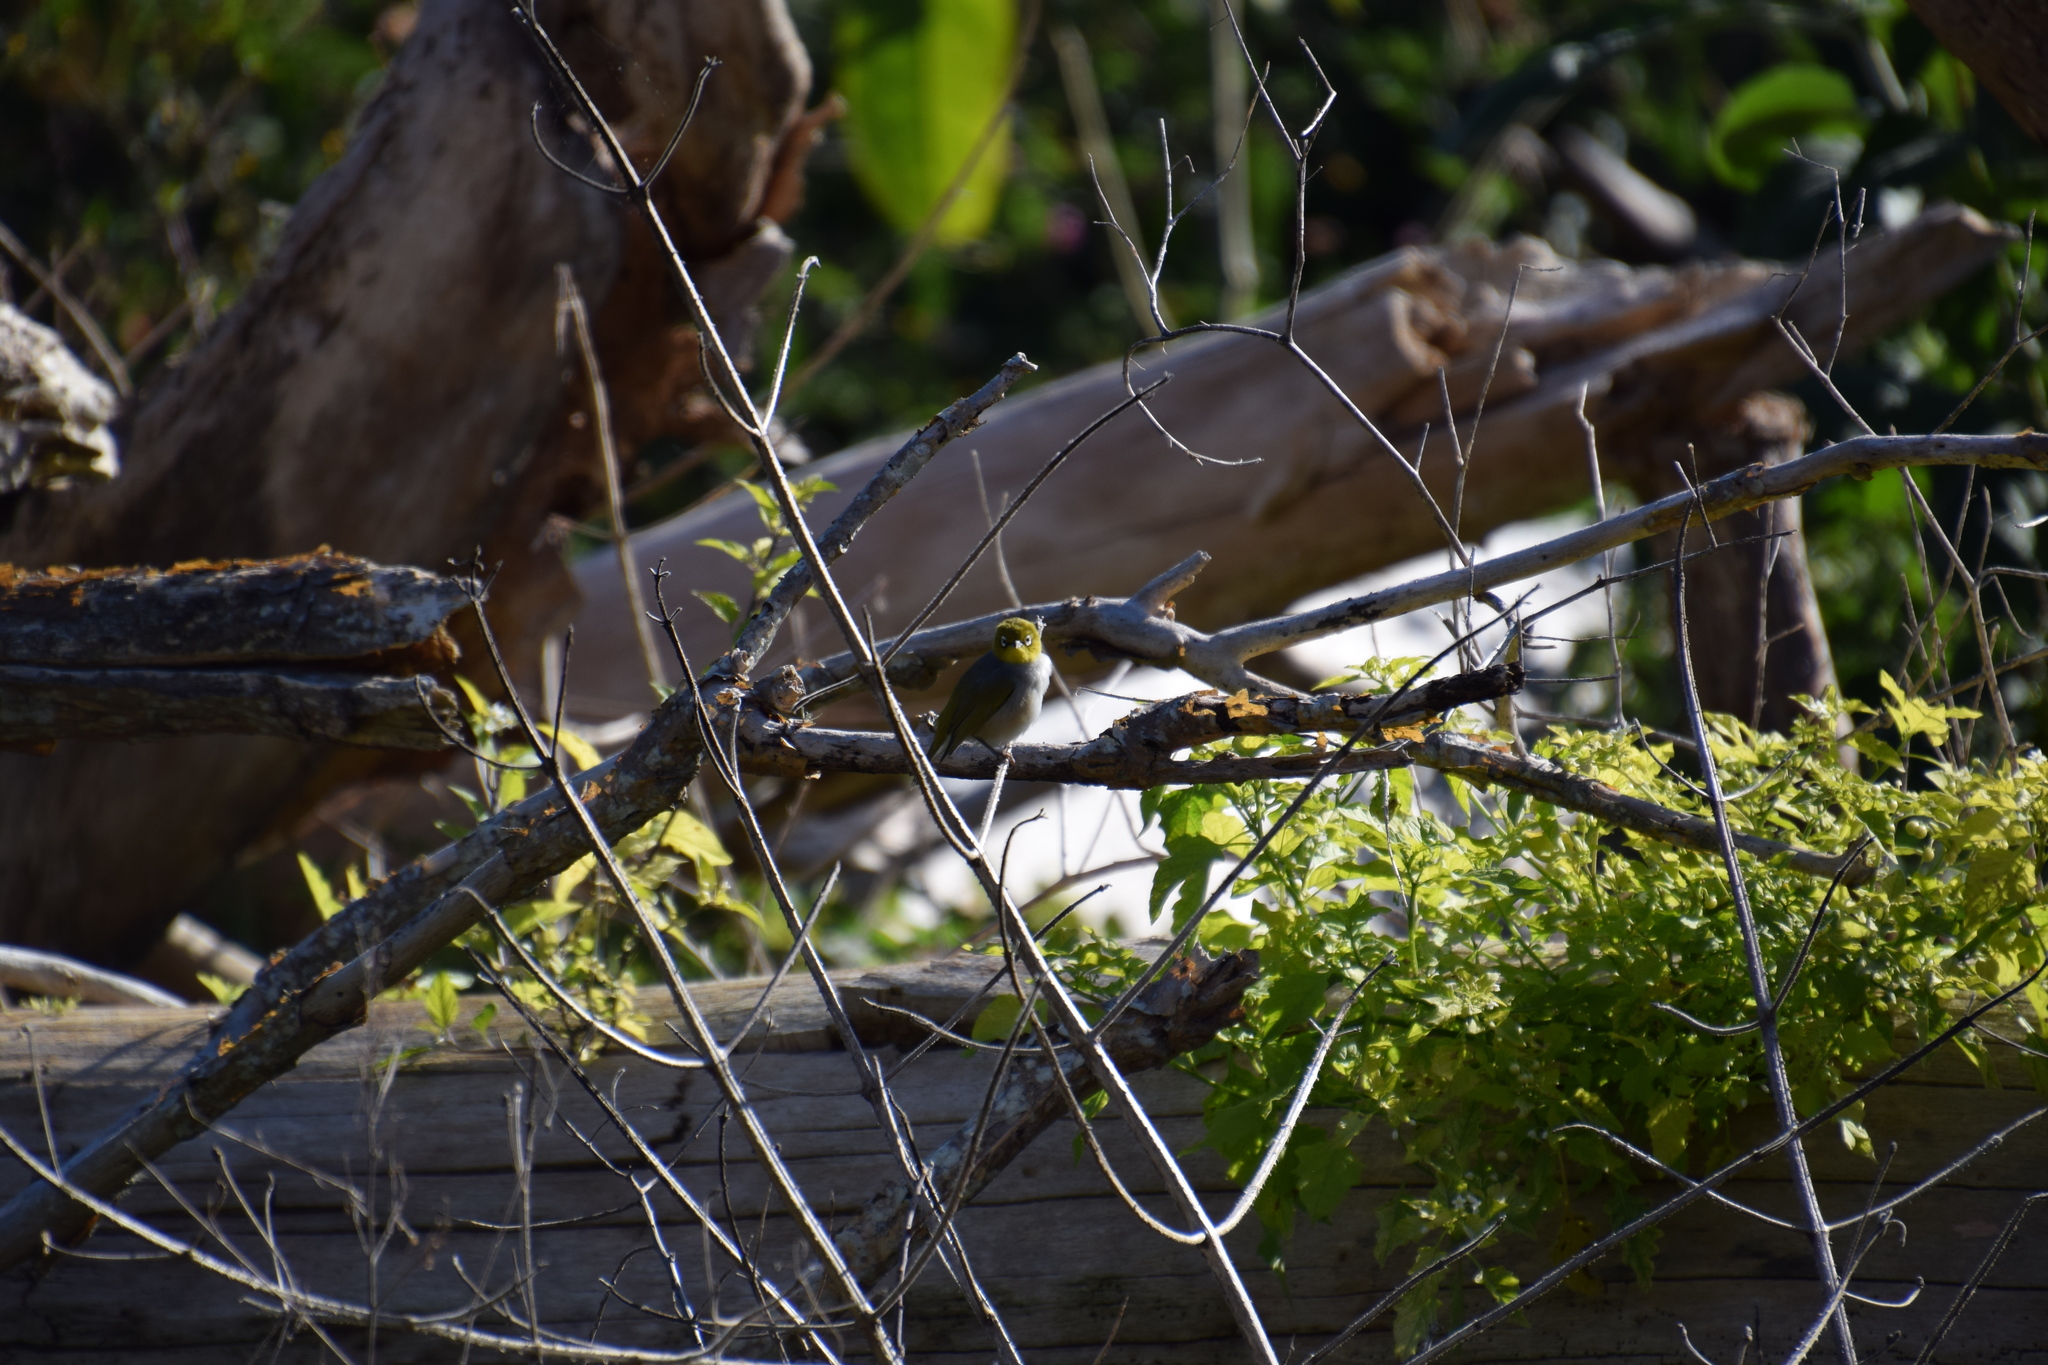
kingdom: Animalia
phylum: Chordata
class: Aves
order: Passeriformes
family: Zosteropidae
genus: Zosterops
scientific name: Zosterops lateralis
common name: Silvereye
